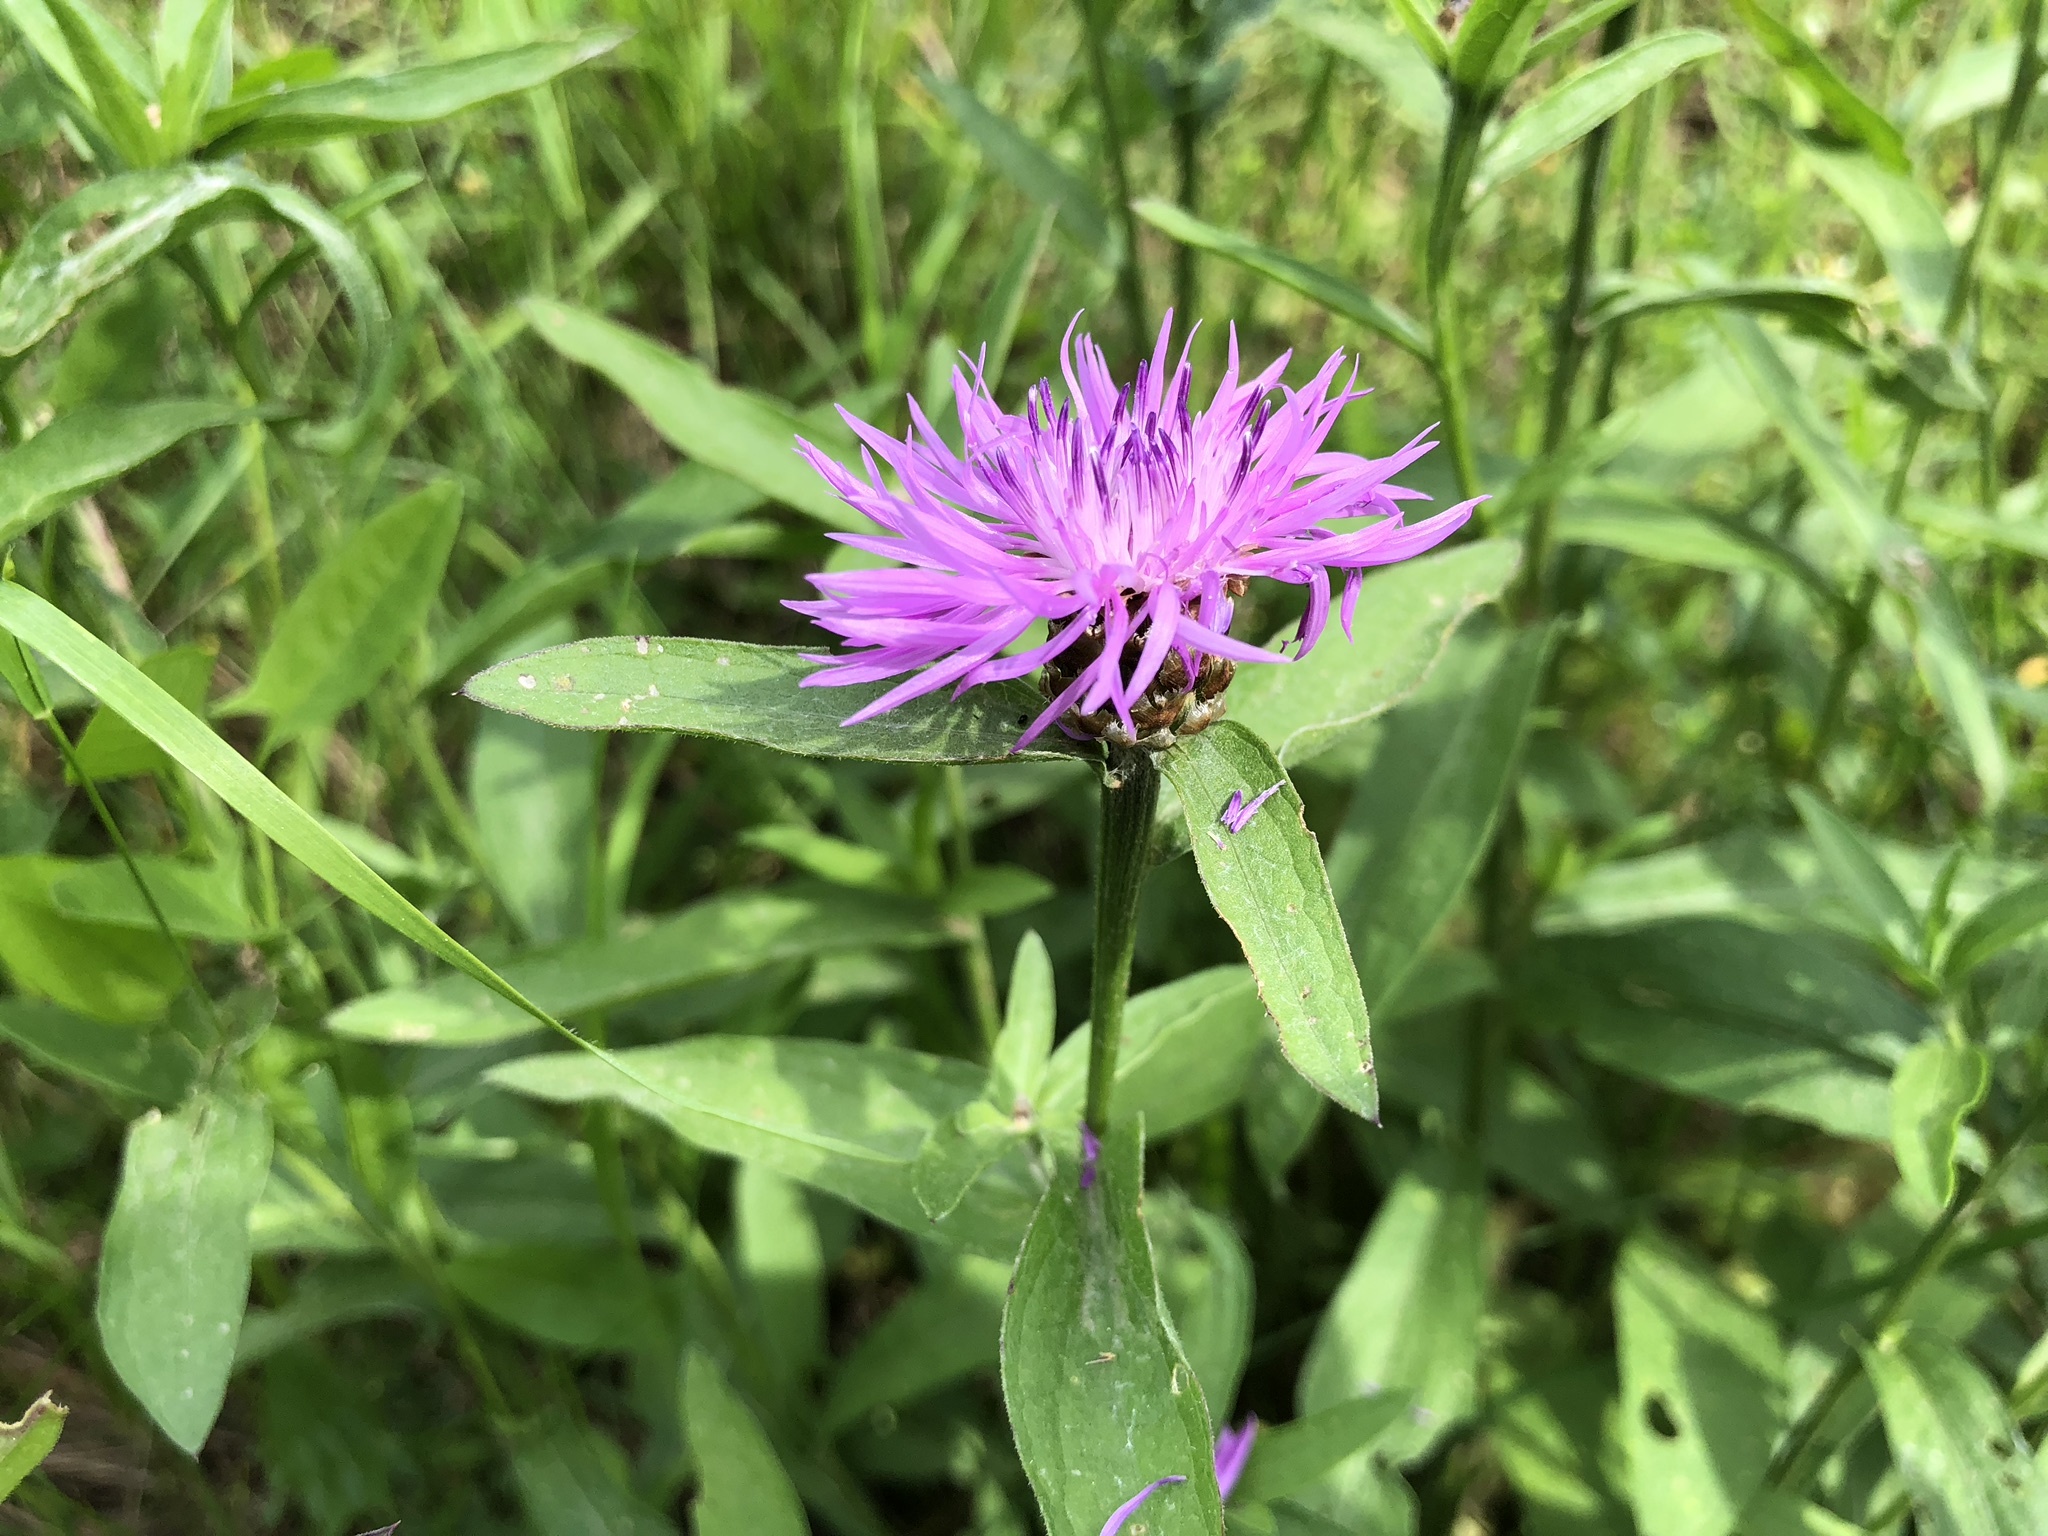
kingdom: Plantae
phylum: Tracheophyta
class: Magnoliopsida
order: Asterales
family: Asteraceae
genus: Centaurea
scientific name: Centaurea jacea
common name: Brown knapweed
